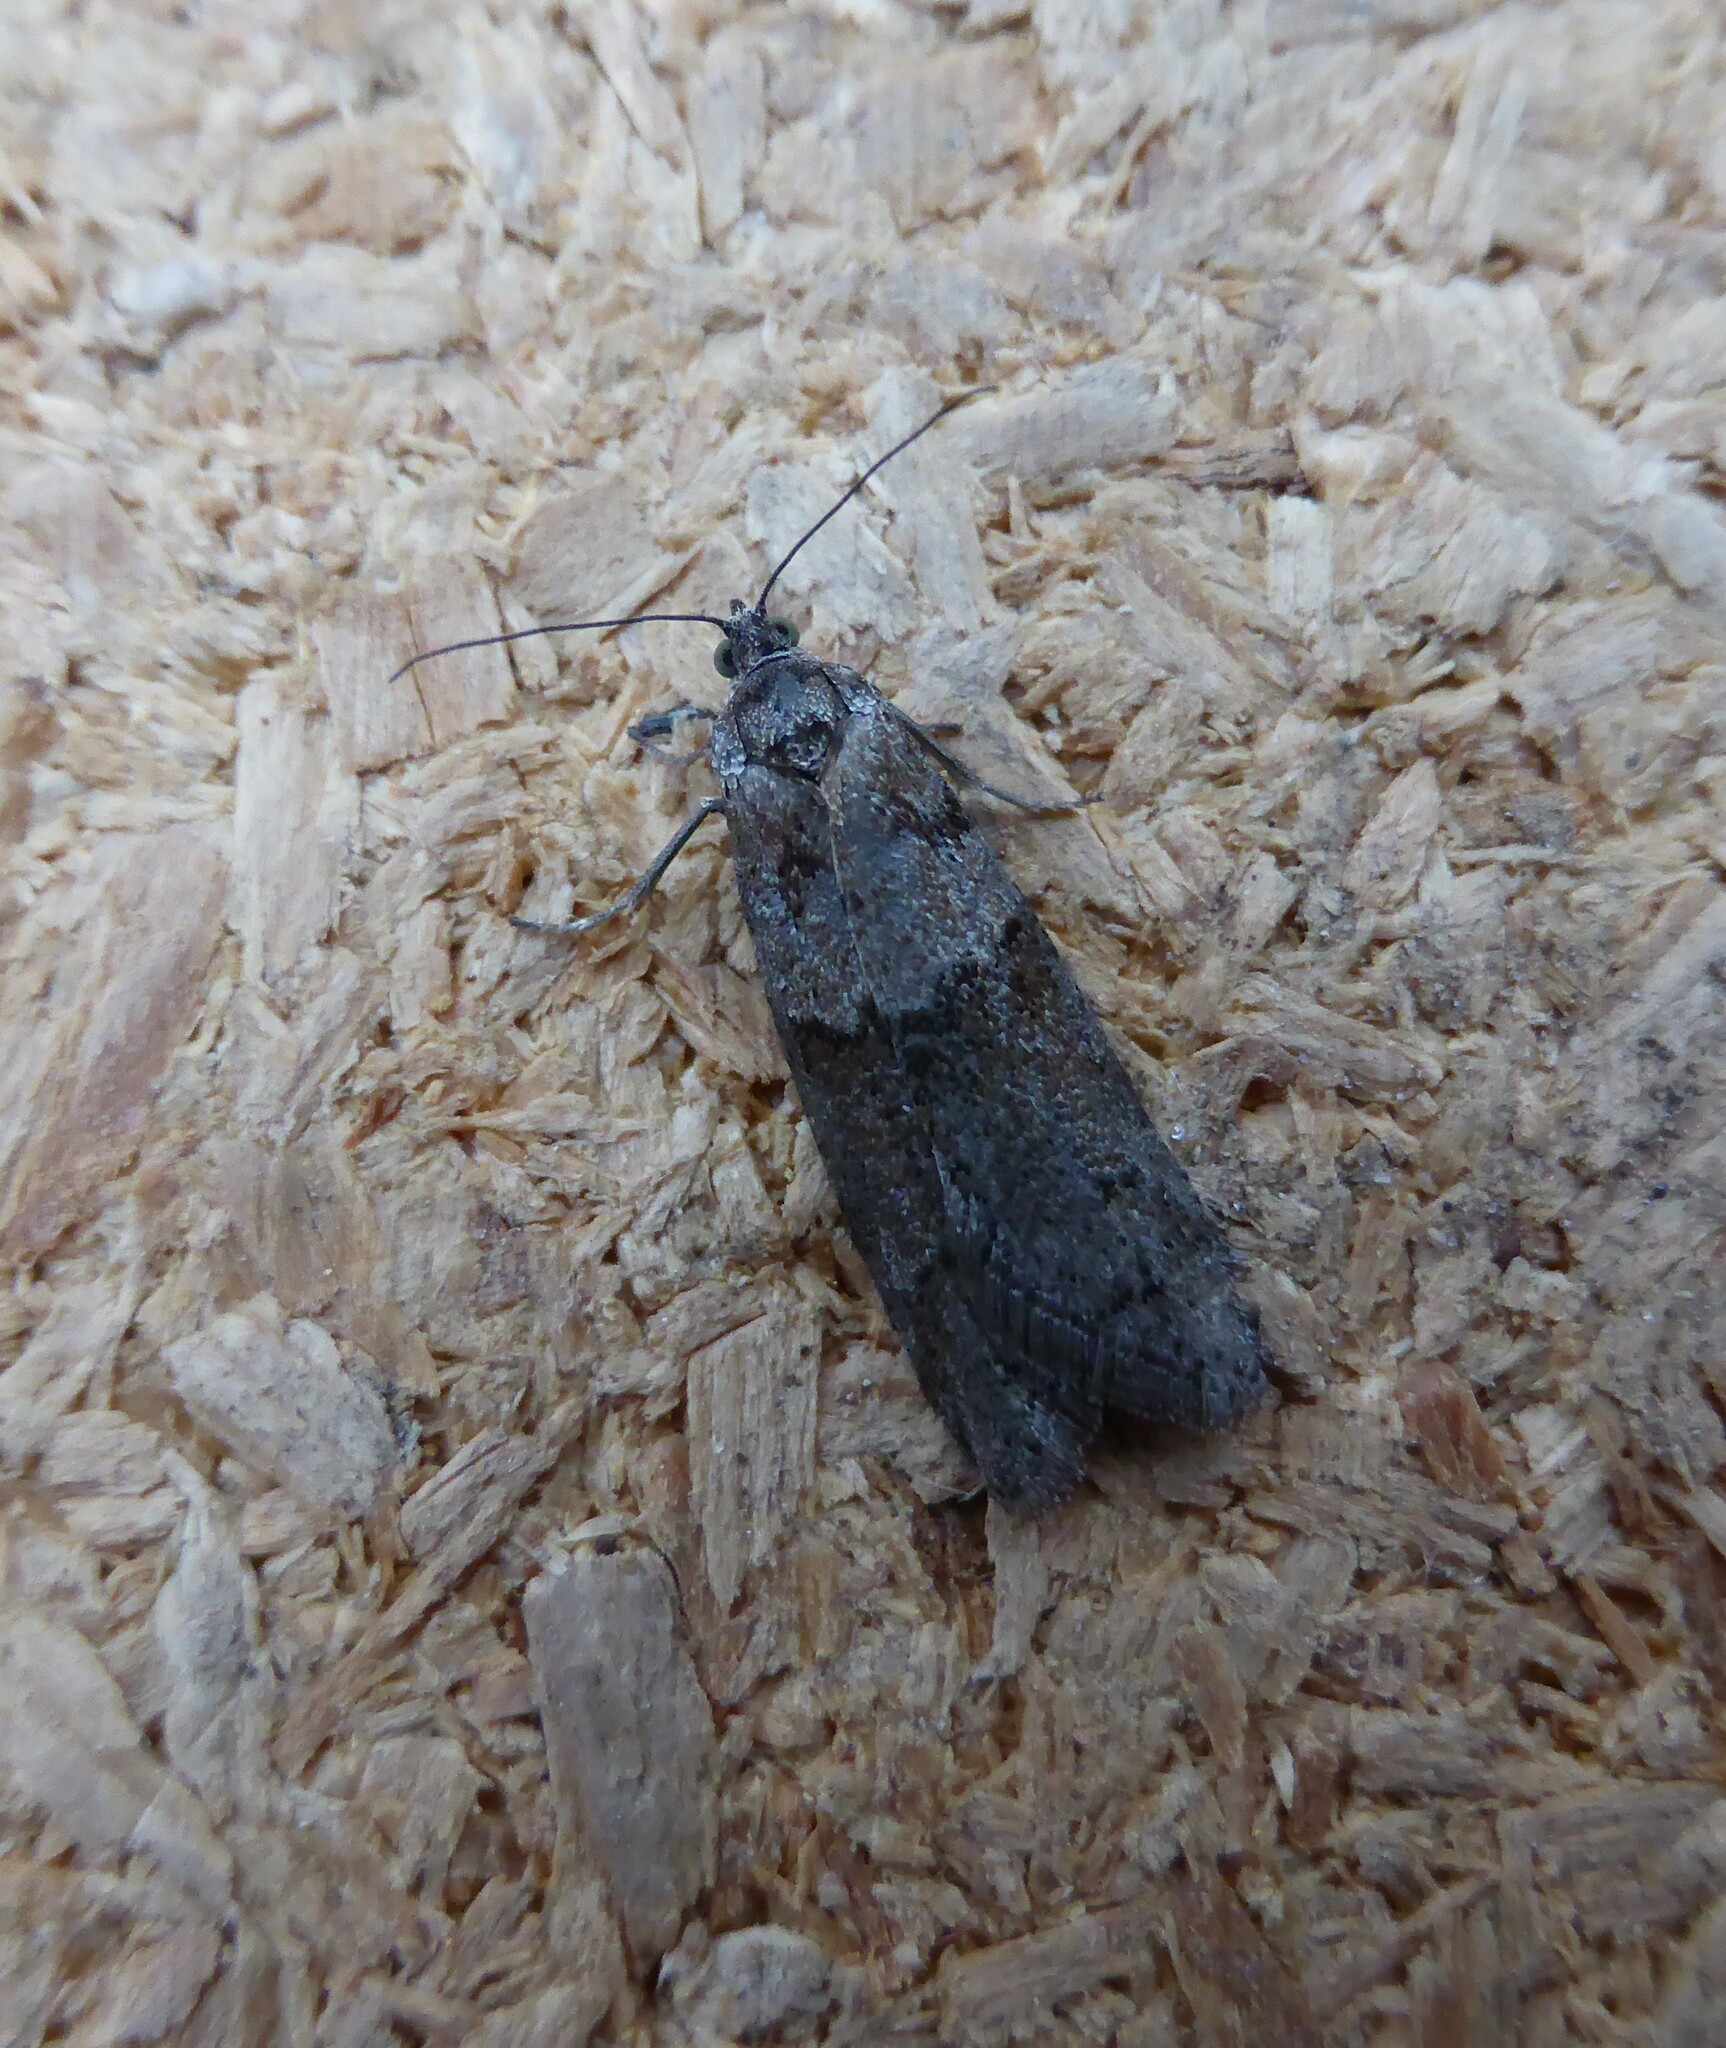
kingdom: Animalia
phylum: Arthropoda
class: Insecta
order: Lepidoptera
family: Tortricidae
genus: Tortricodes
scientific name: Tortricodes alternella
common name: Winter shade
